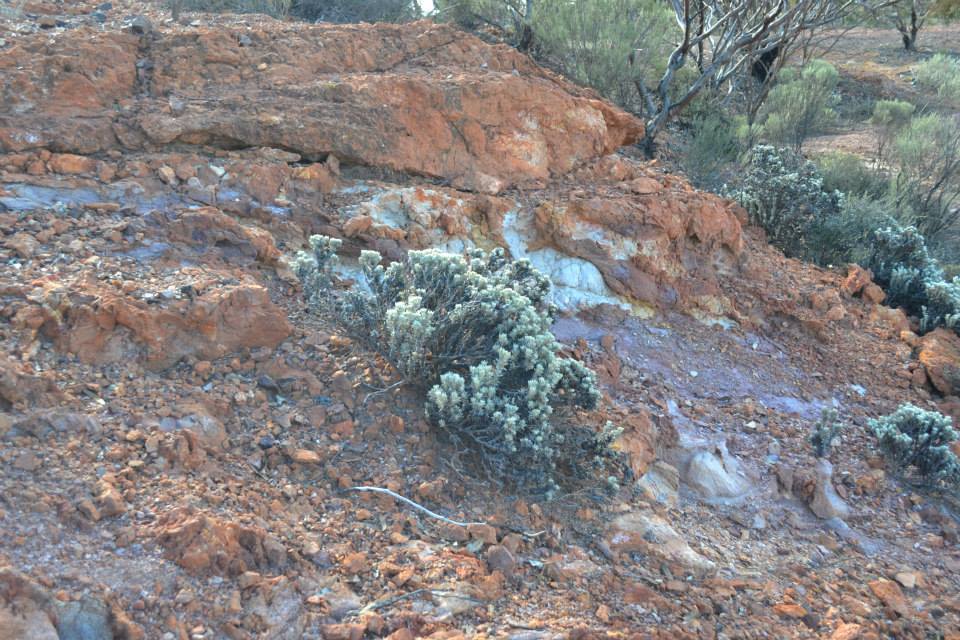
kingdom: Plantae
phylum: Tracheophyta
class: Magnoliopsida
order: Caryophyllales
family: Amaranthaceae
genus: Ptilotus
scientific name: Ptilotus helichrysoides
